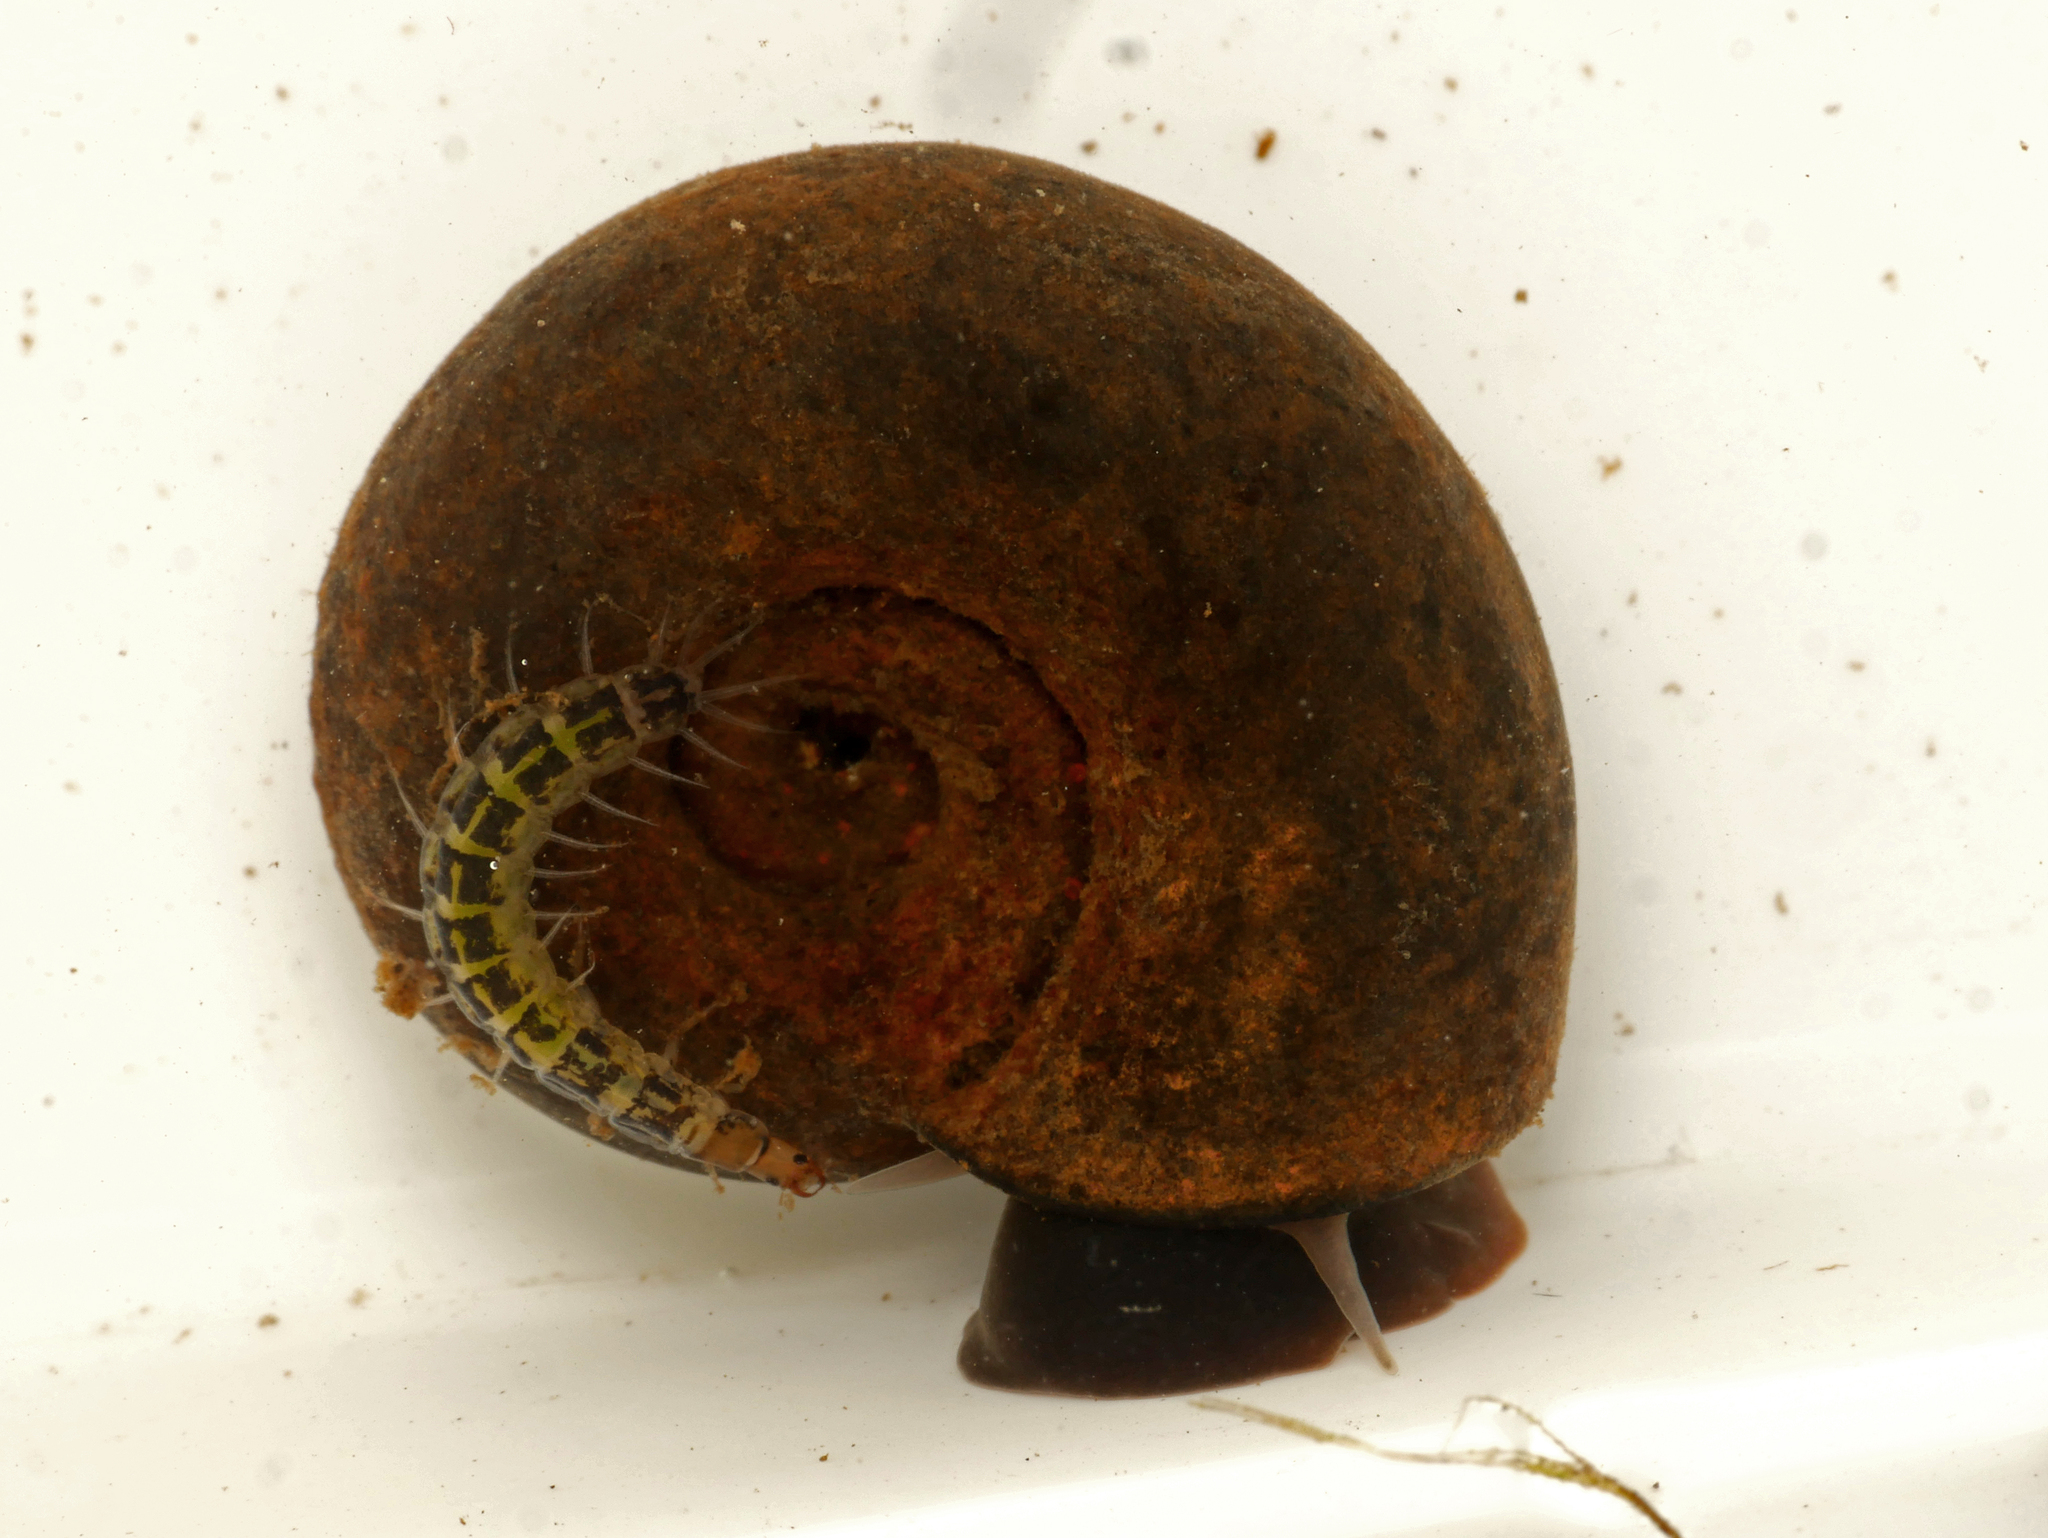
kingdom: Animalia
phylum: Mollusca
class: Gastropoda
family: Planorbidae
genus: Planorbarius
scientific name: Planorbarius corneus
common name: Great ramshorn
